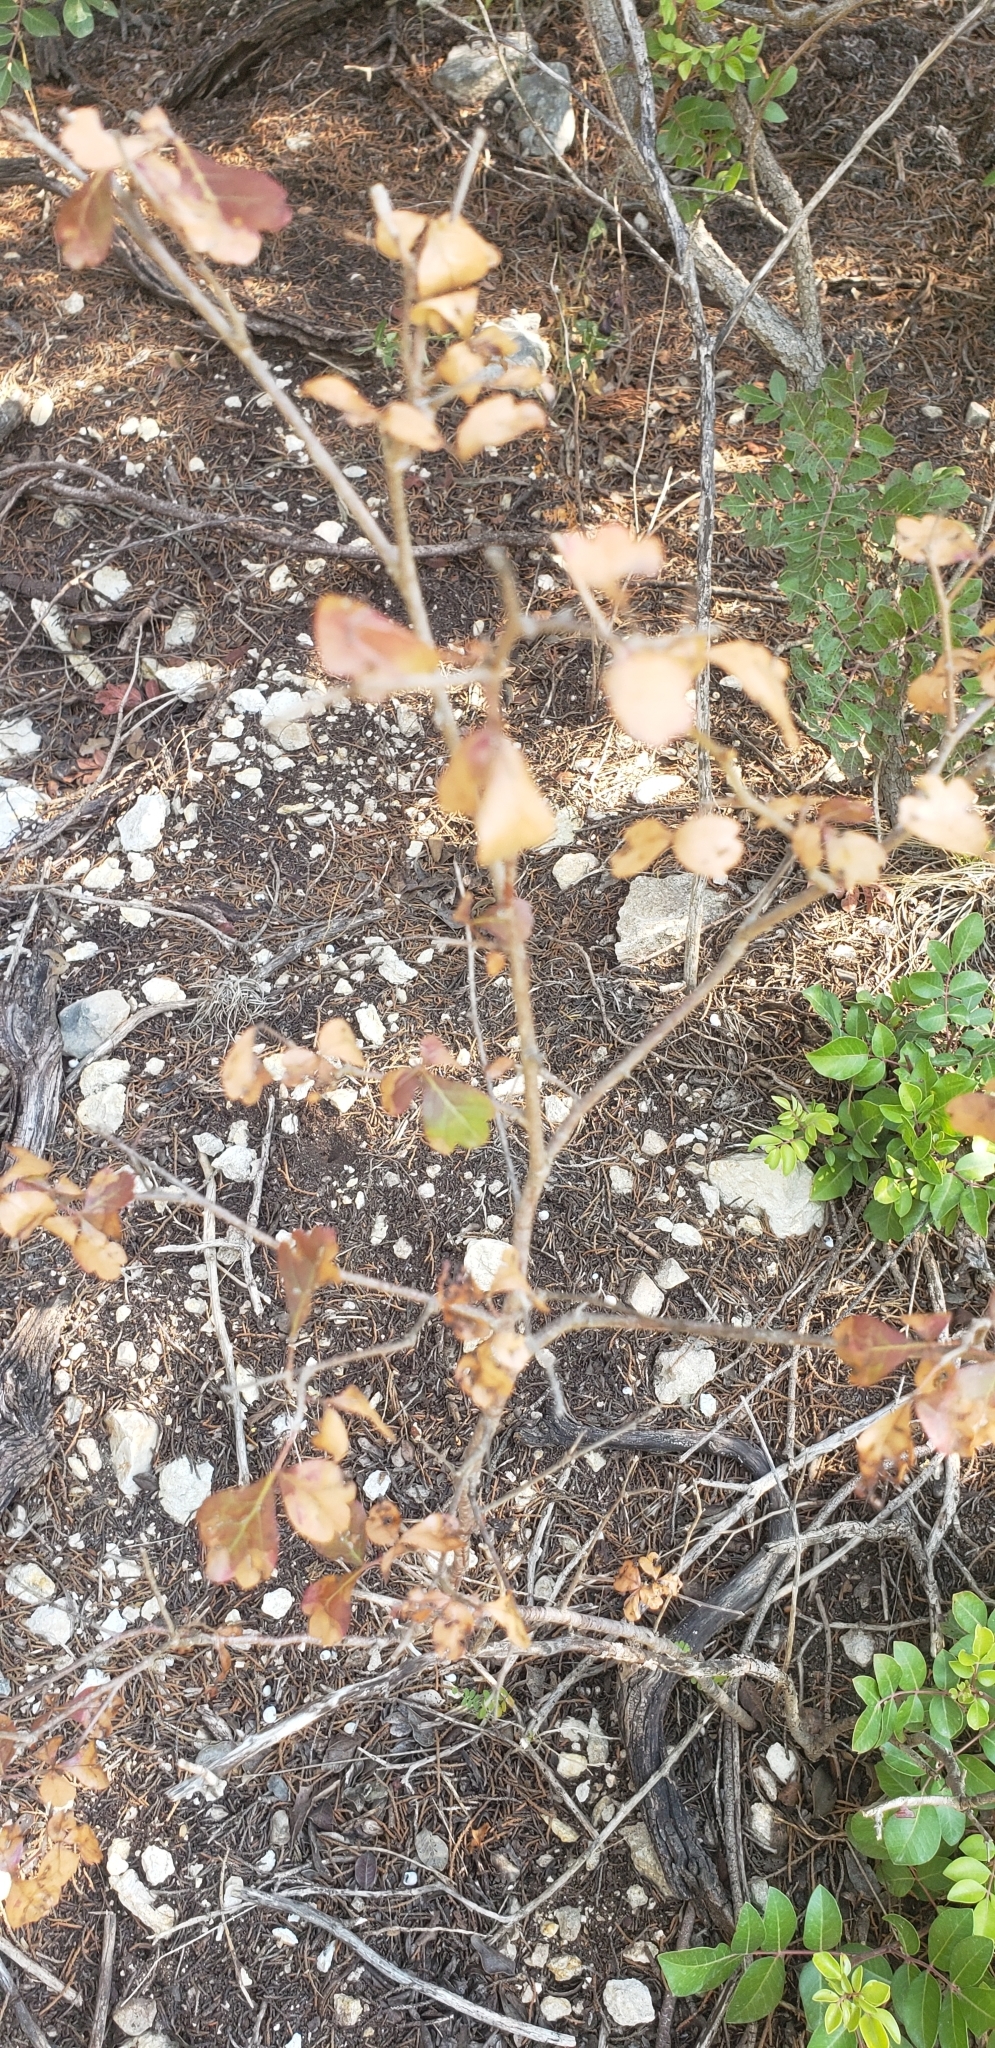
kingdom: Plantae
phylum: Tracheophyta
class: Magnoliopsida
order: Sapindales
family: Anacardiaceae
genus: Rhus
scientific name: Rhus aromatica
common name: Aromatic sumac
